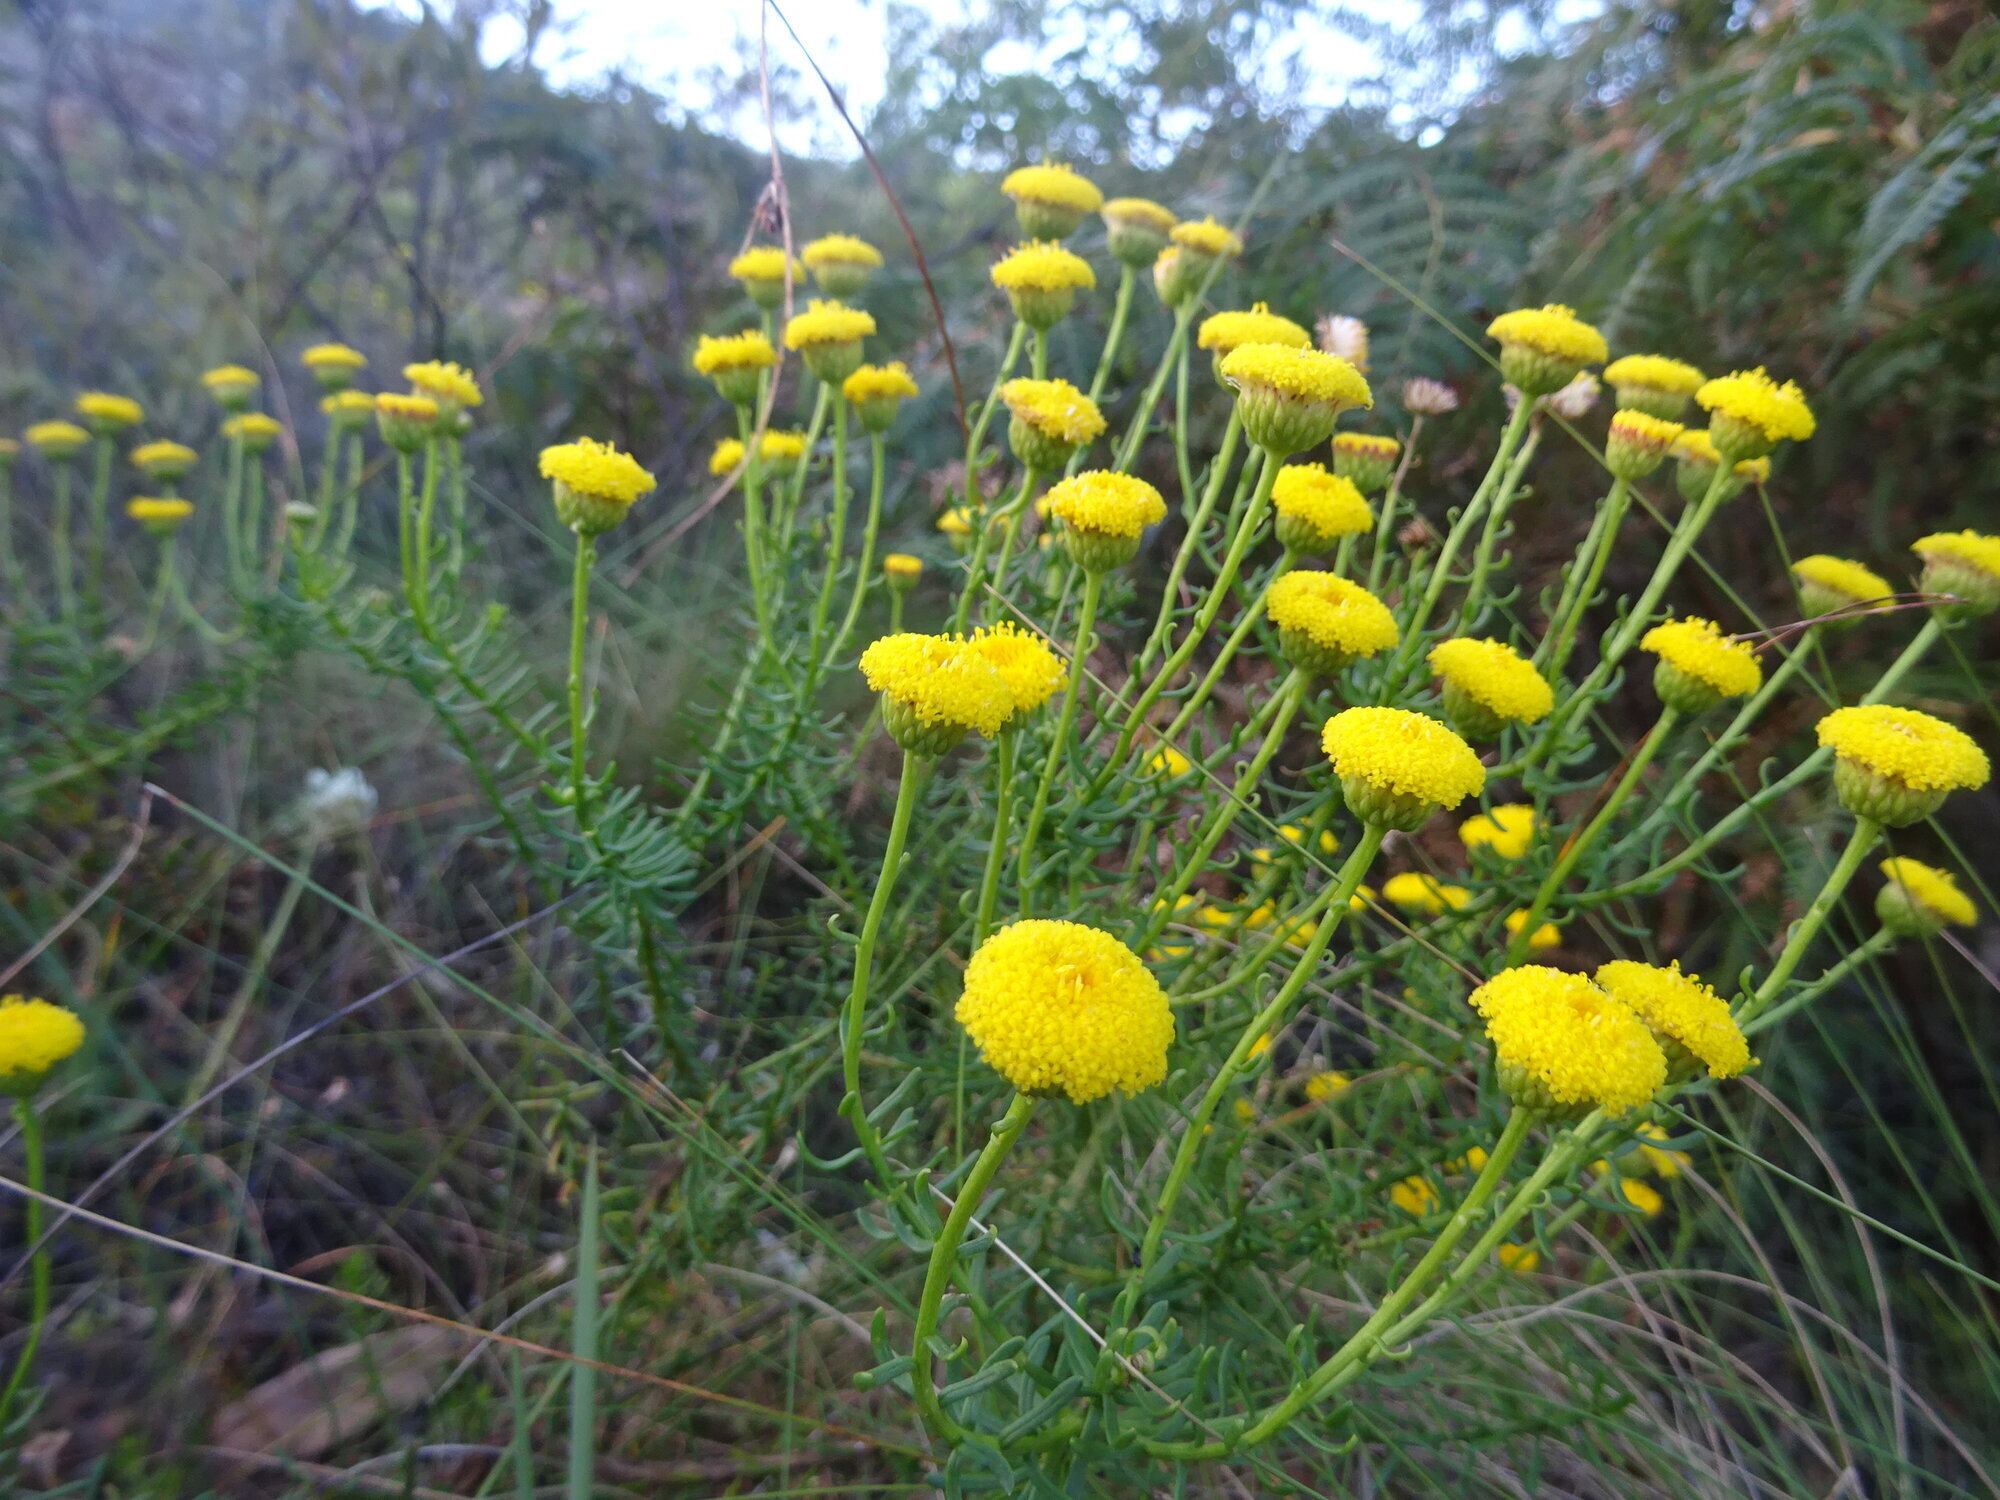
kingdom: Plantae
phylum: Tracheophyta
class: Magnoliopsida
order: Asterales
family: Asteraceae
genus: Chrysocoma
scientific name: Chrysocoma cernua
